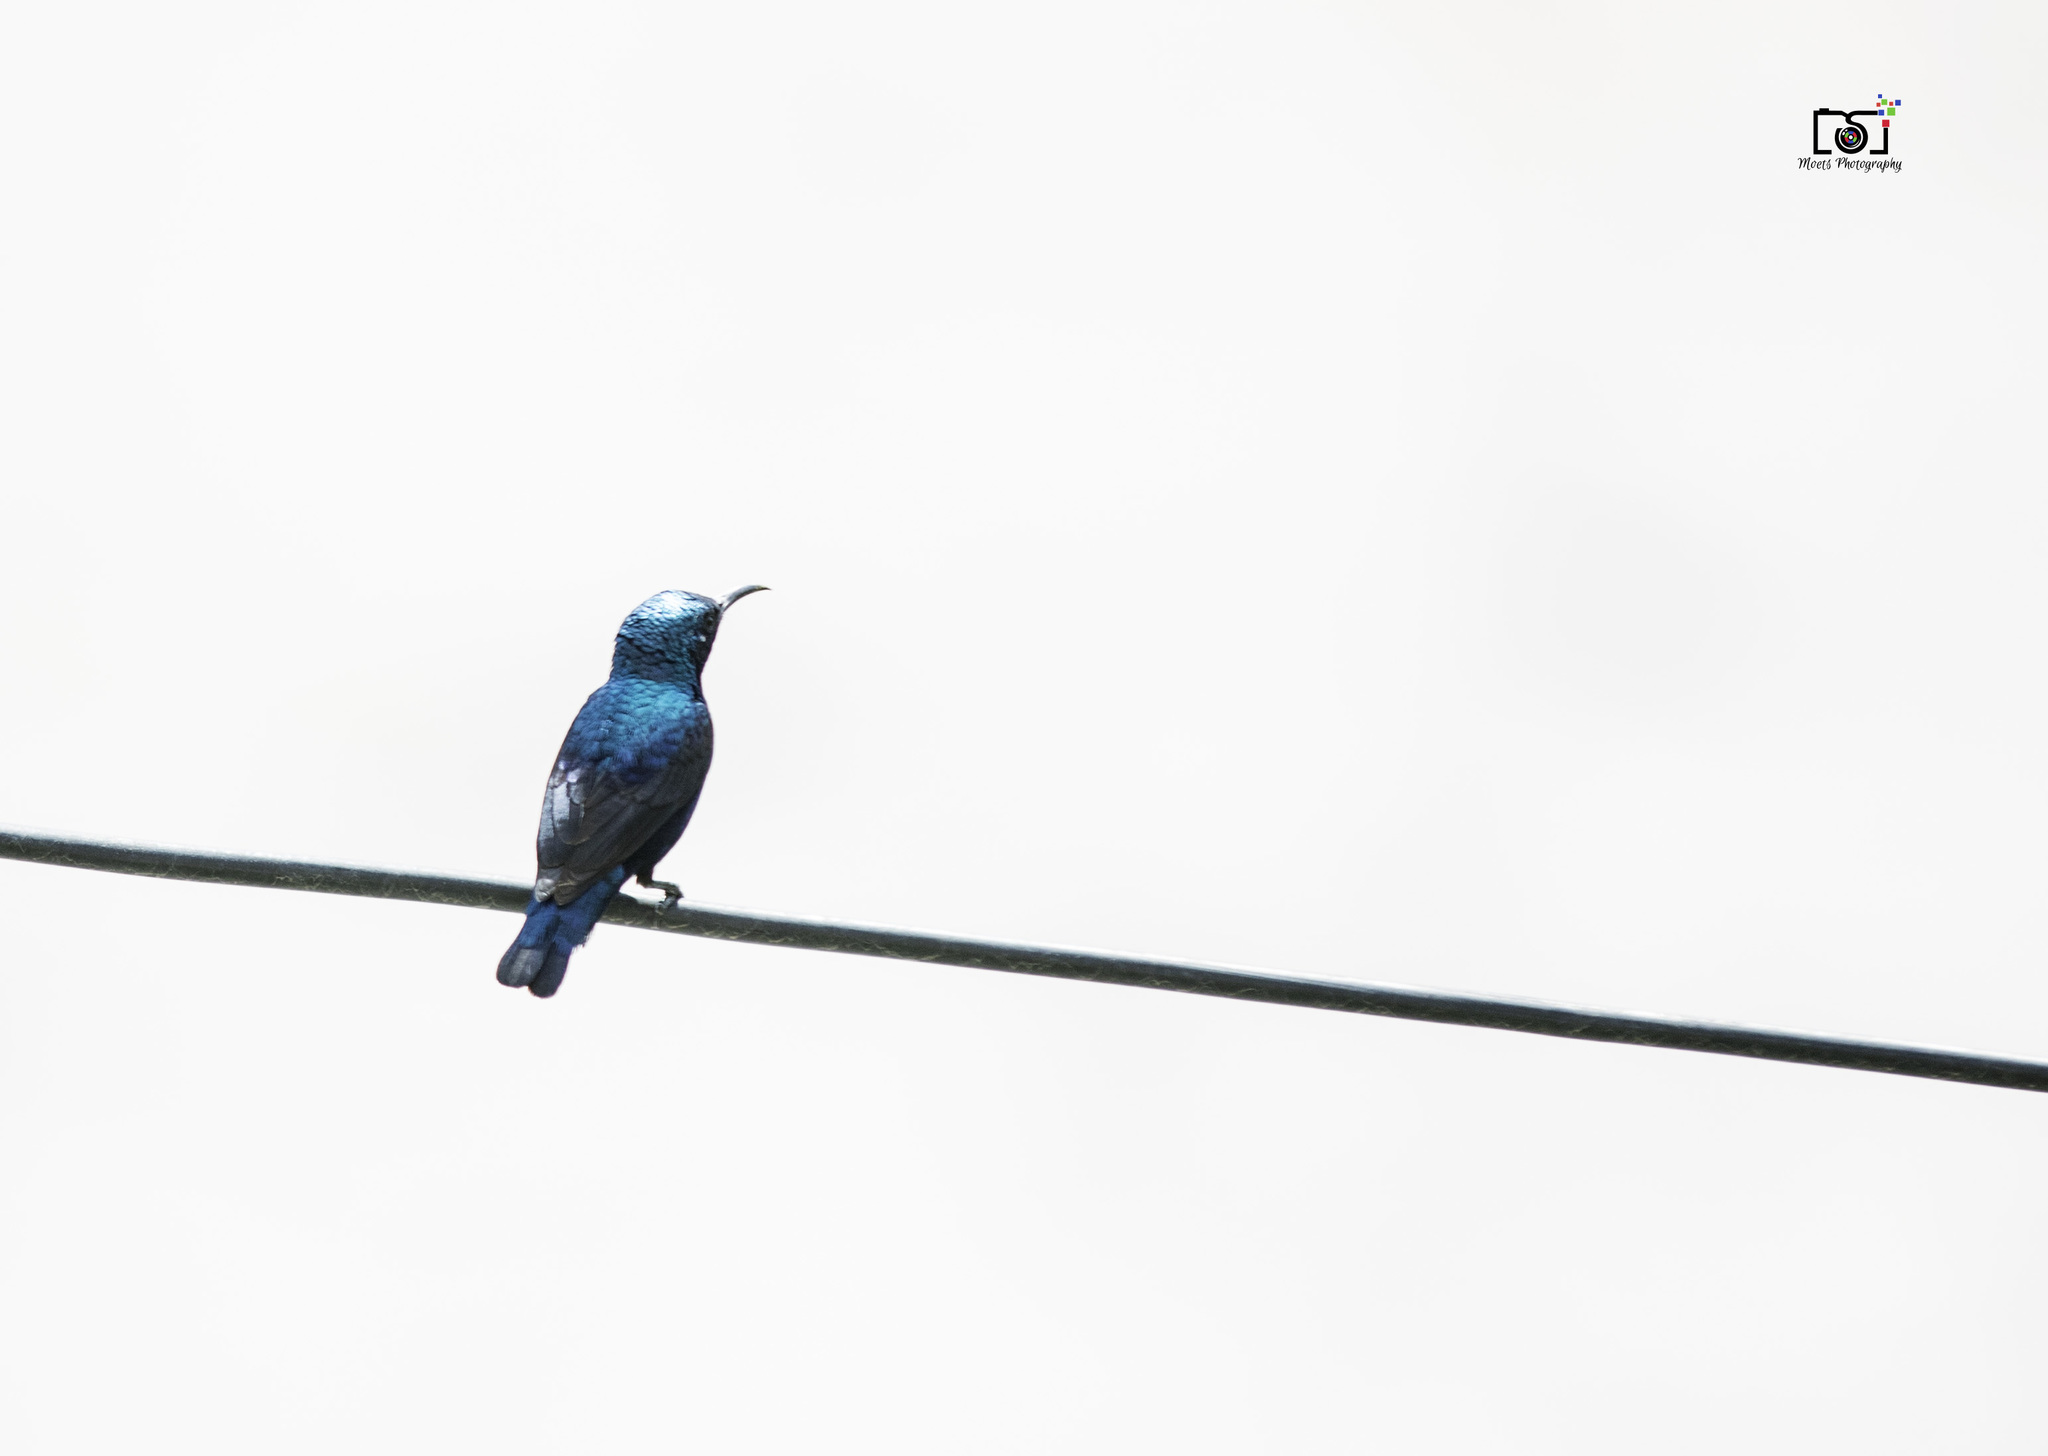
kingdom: Animalia
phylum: Chordata
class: Aves
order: Passeriformes
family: Nectariniidae
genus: Cinnyris
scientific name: Cinnyris asiaticus
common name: Purple sunbird
